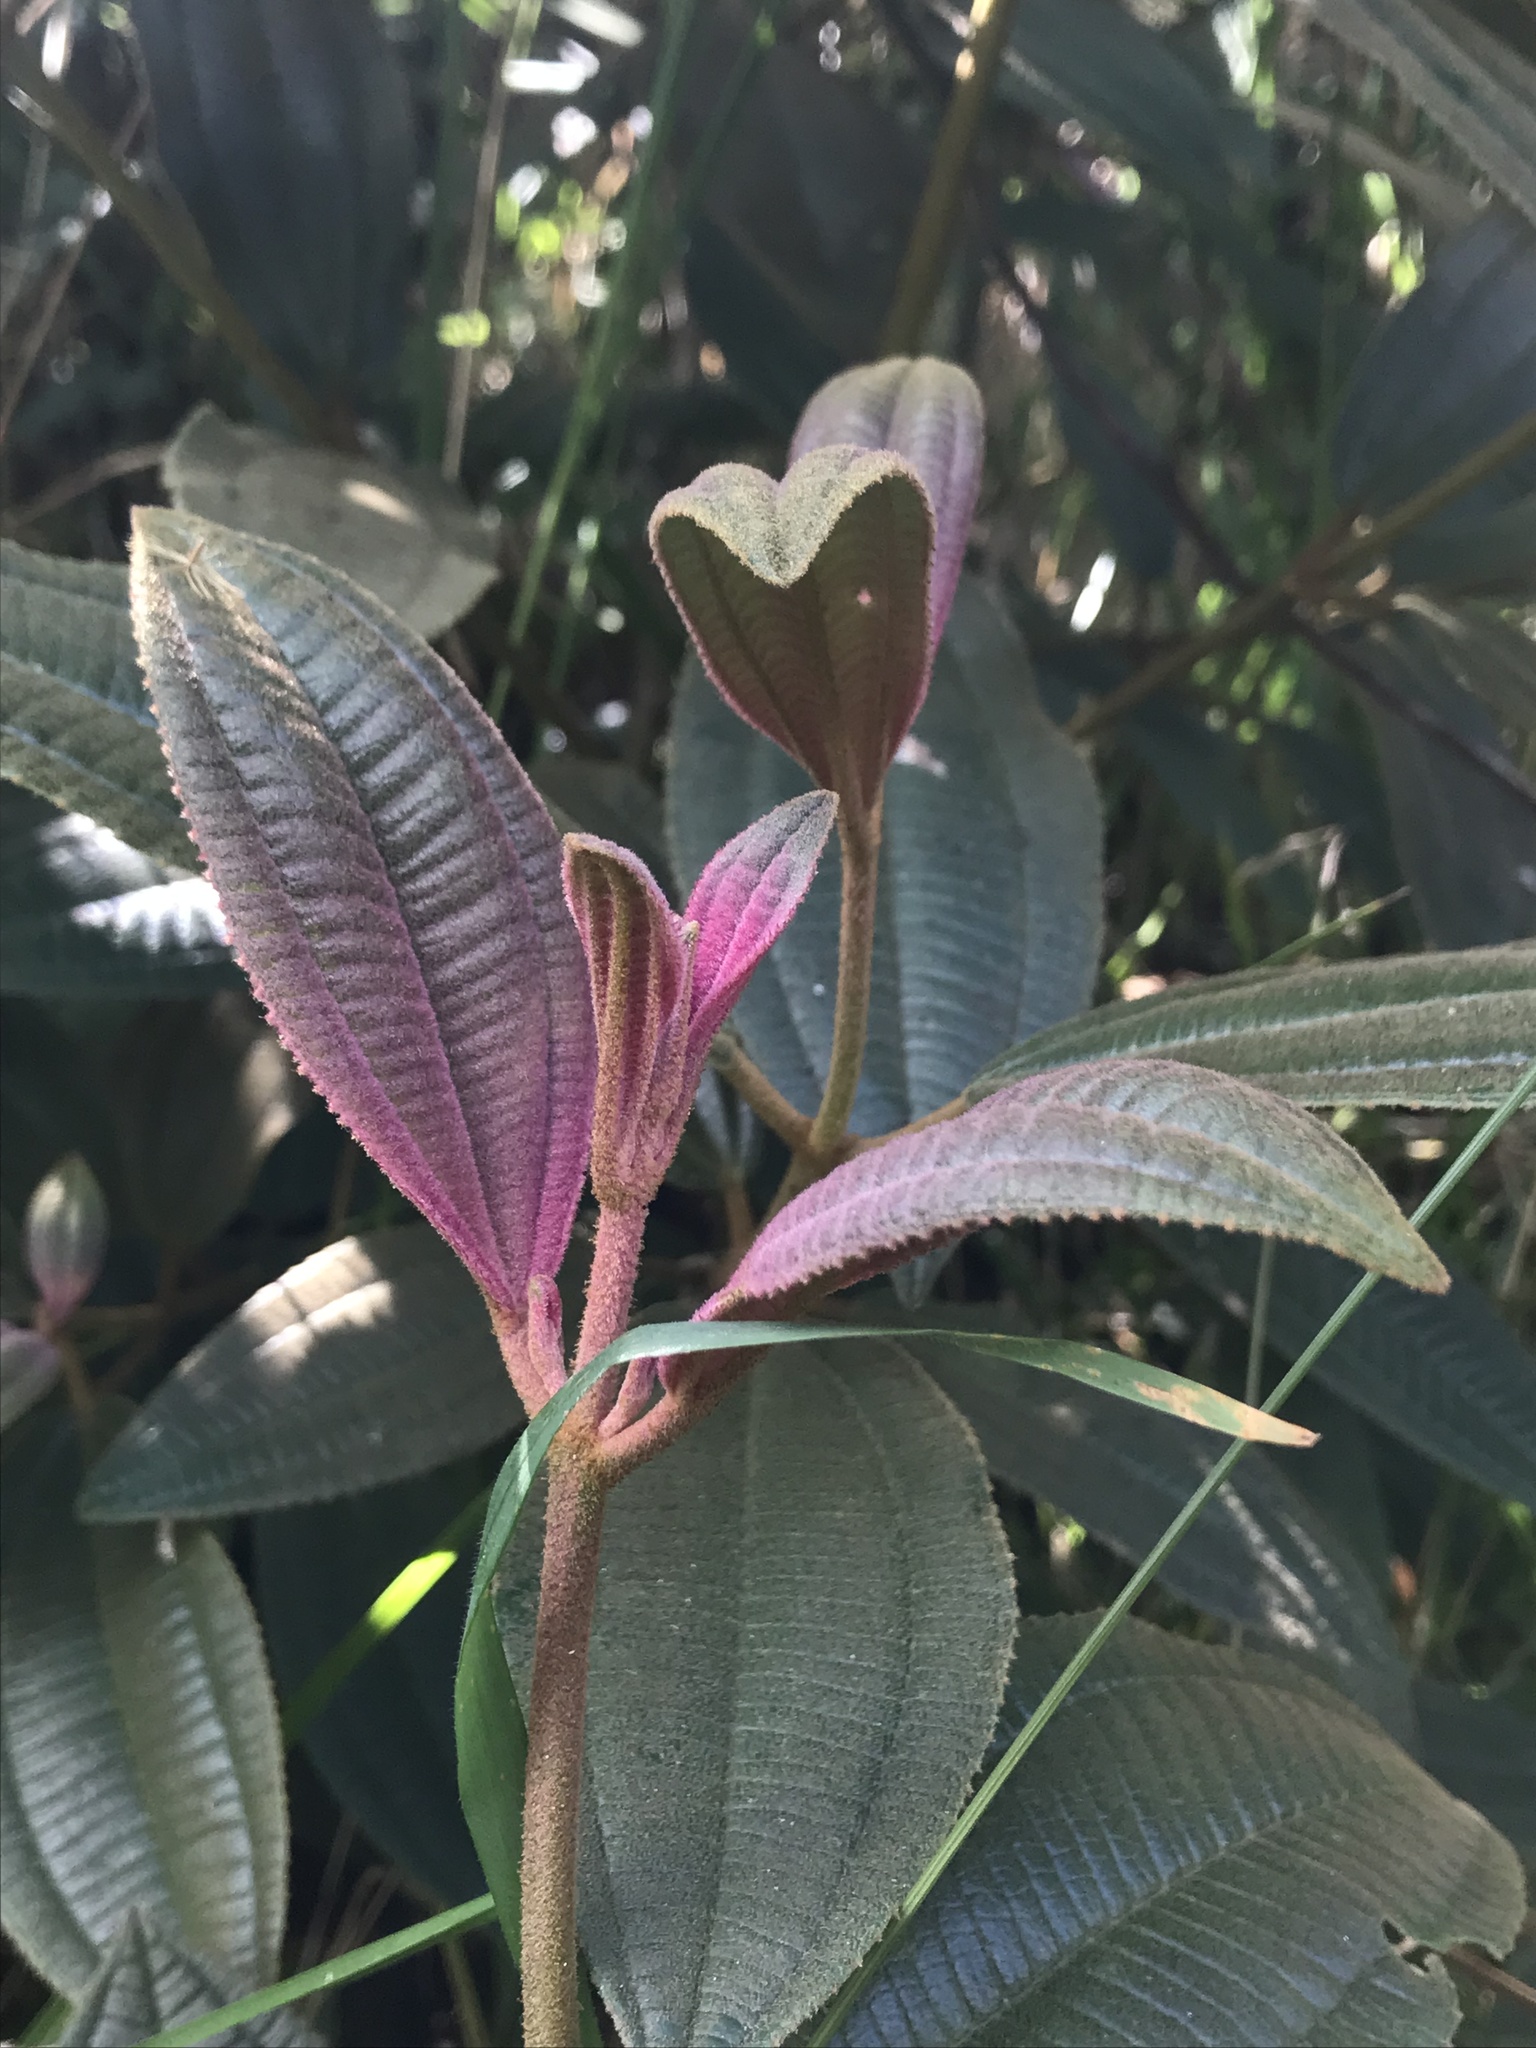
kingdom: Plantae
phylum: Tracheophyta
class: Magnoliopsida
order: Myrtales
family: Melastomataceae
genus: Miconia
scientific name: Miconia cataractae
